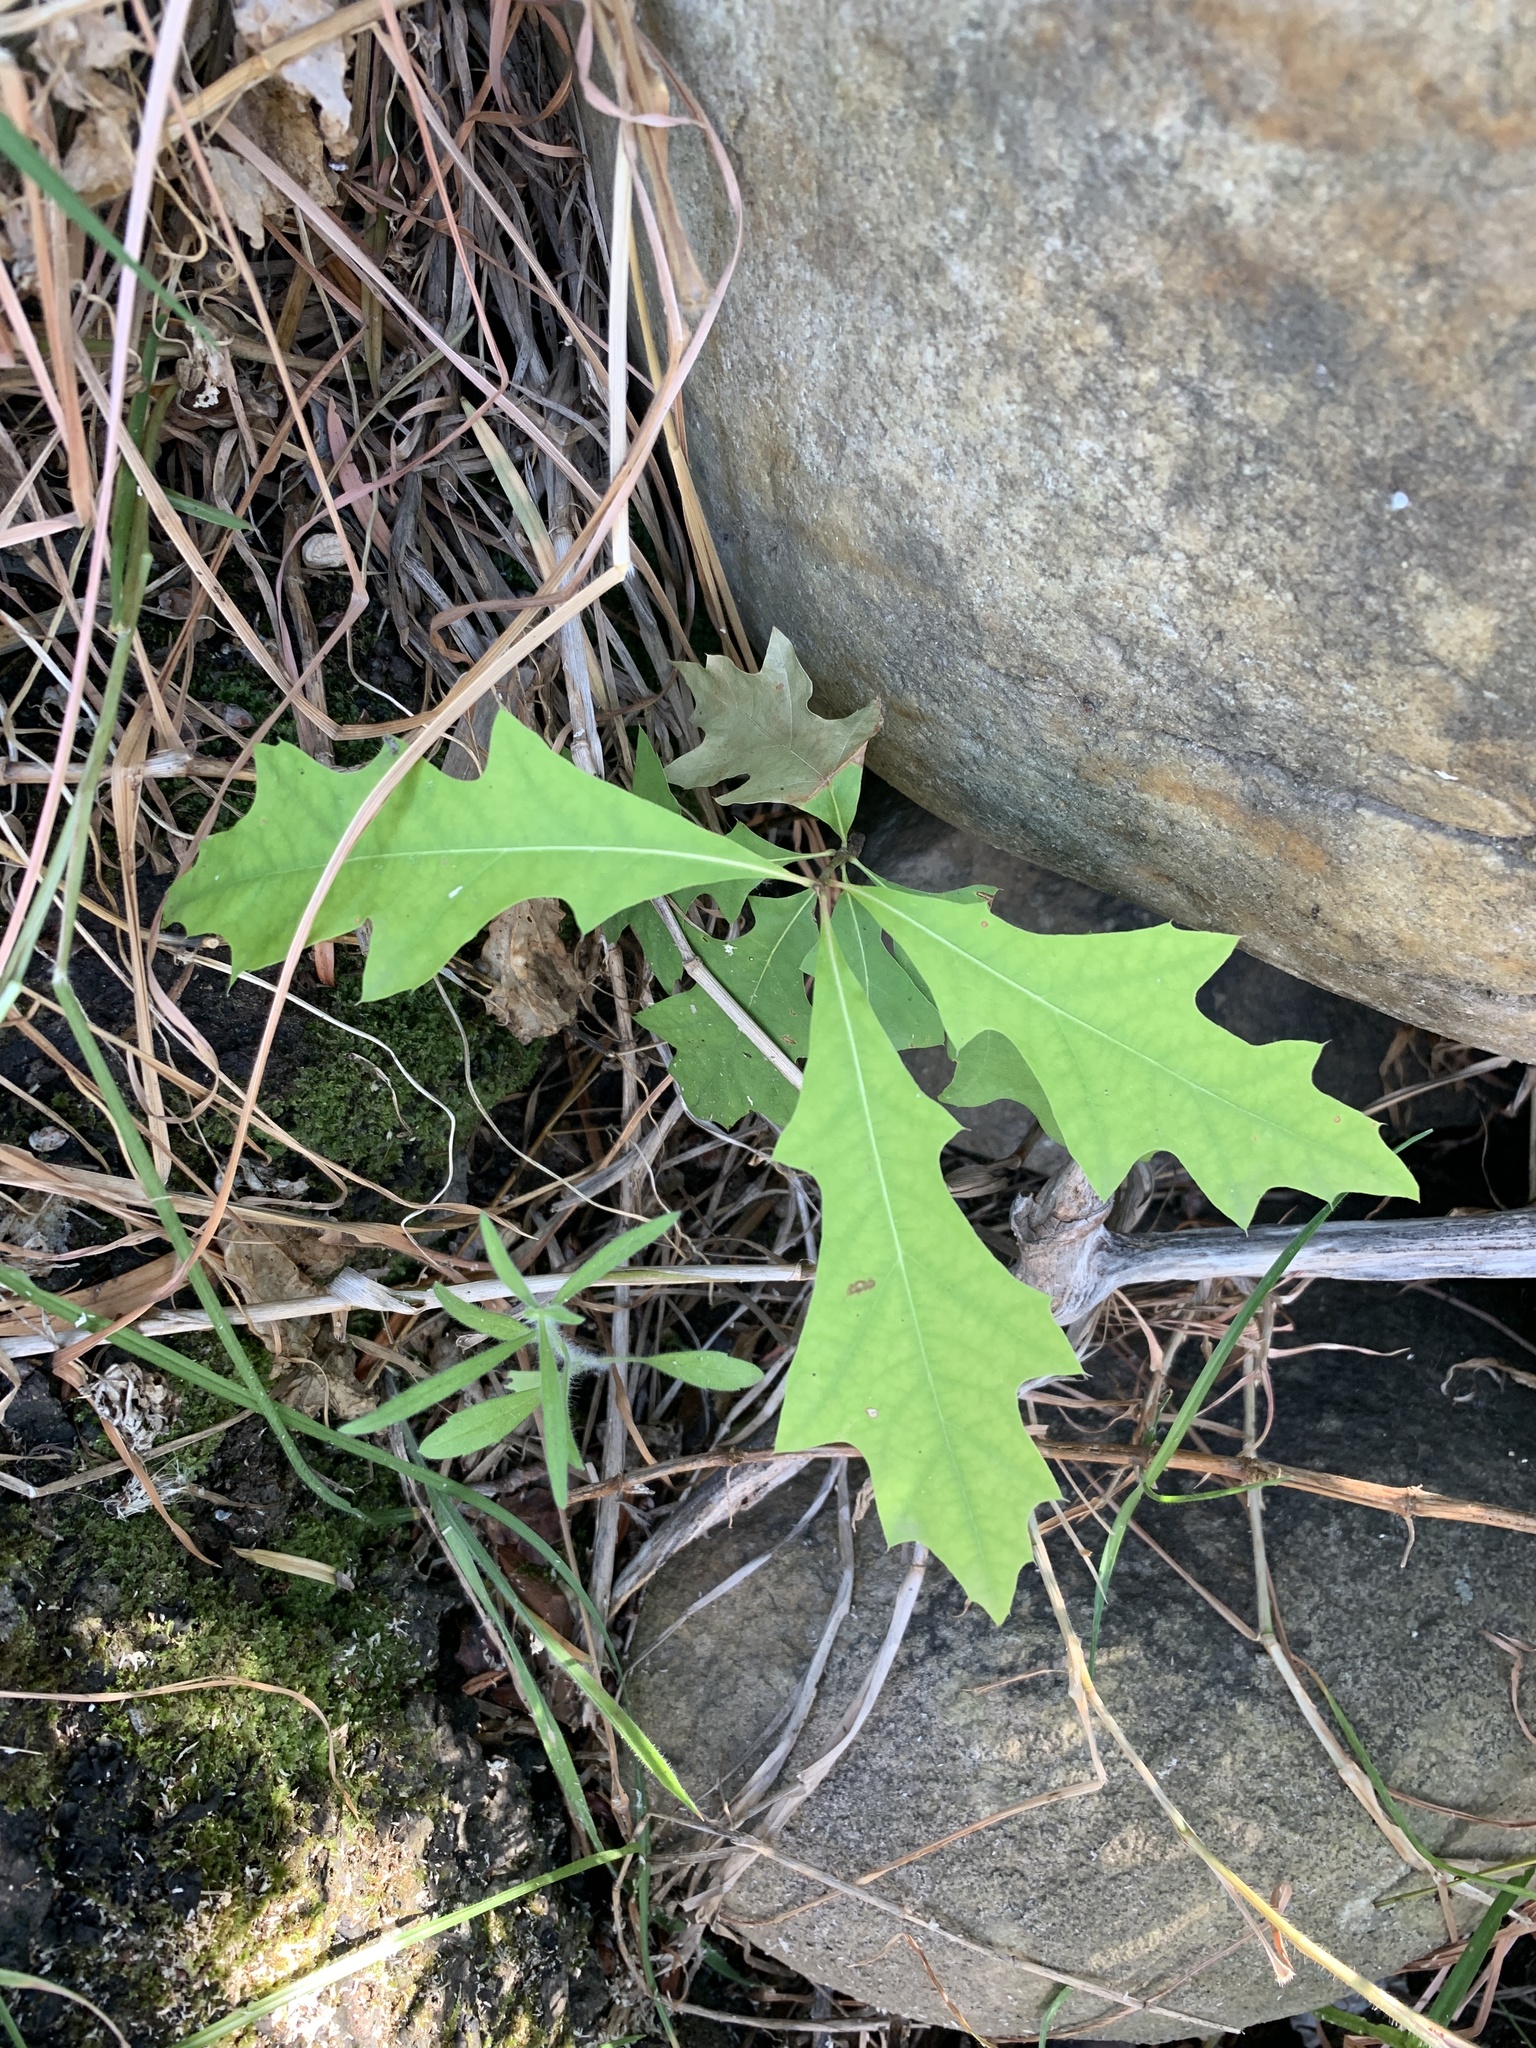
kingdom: Plantae
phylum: Tracheophyta
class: Magnoliopsida
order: Fagales
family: Fagaceae
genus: Quercus
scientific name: Quercus palustris
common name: Pin oak
